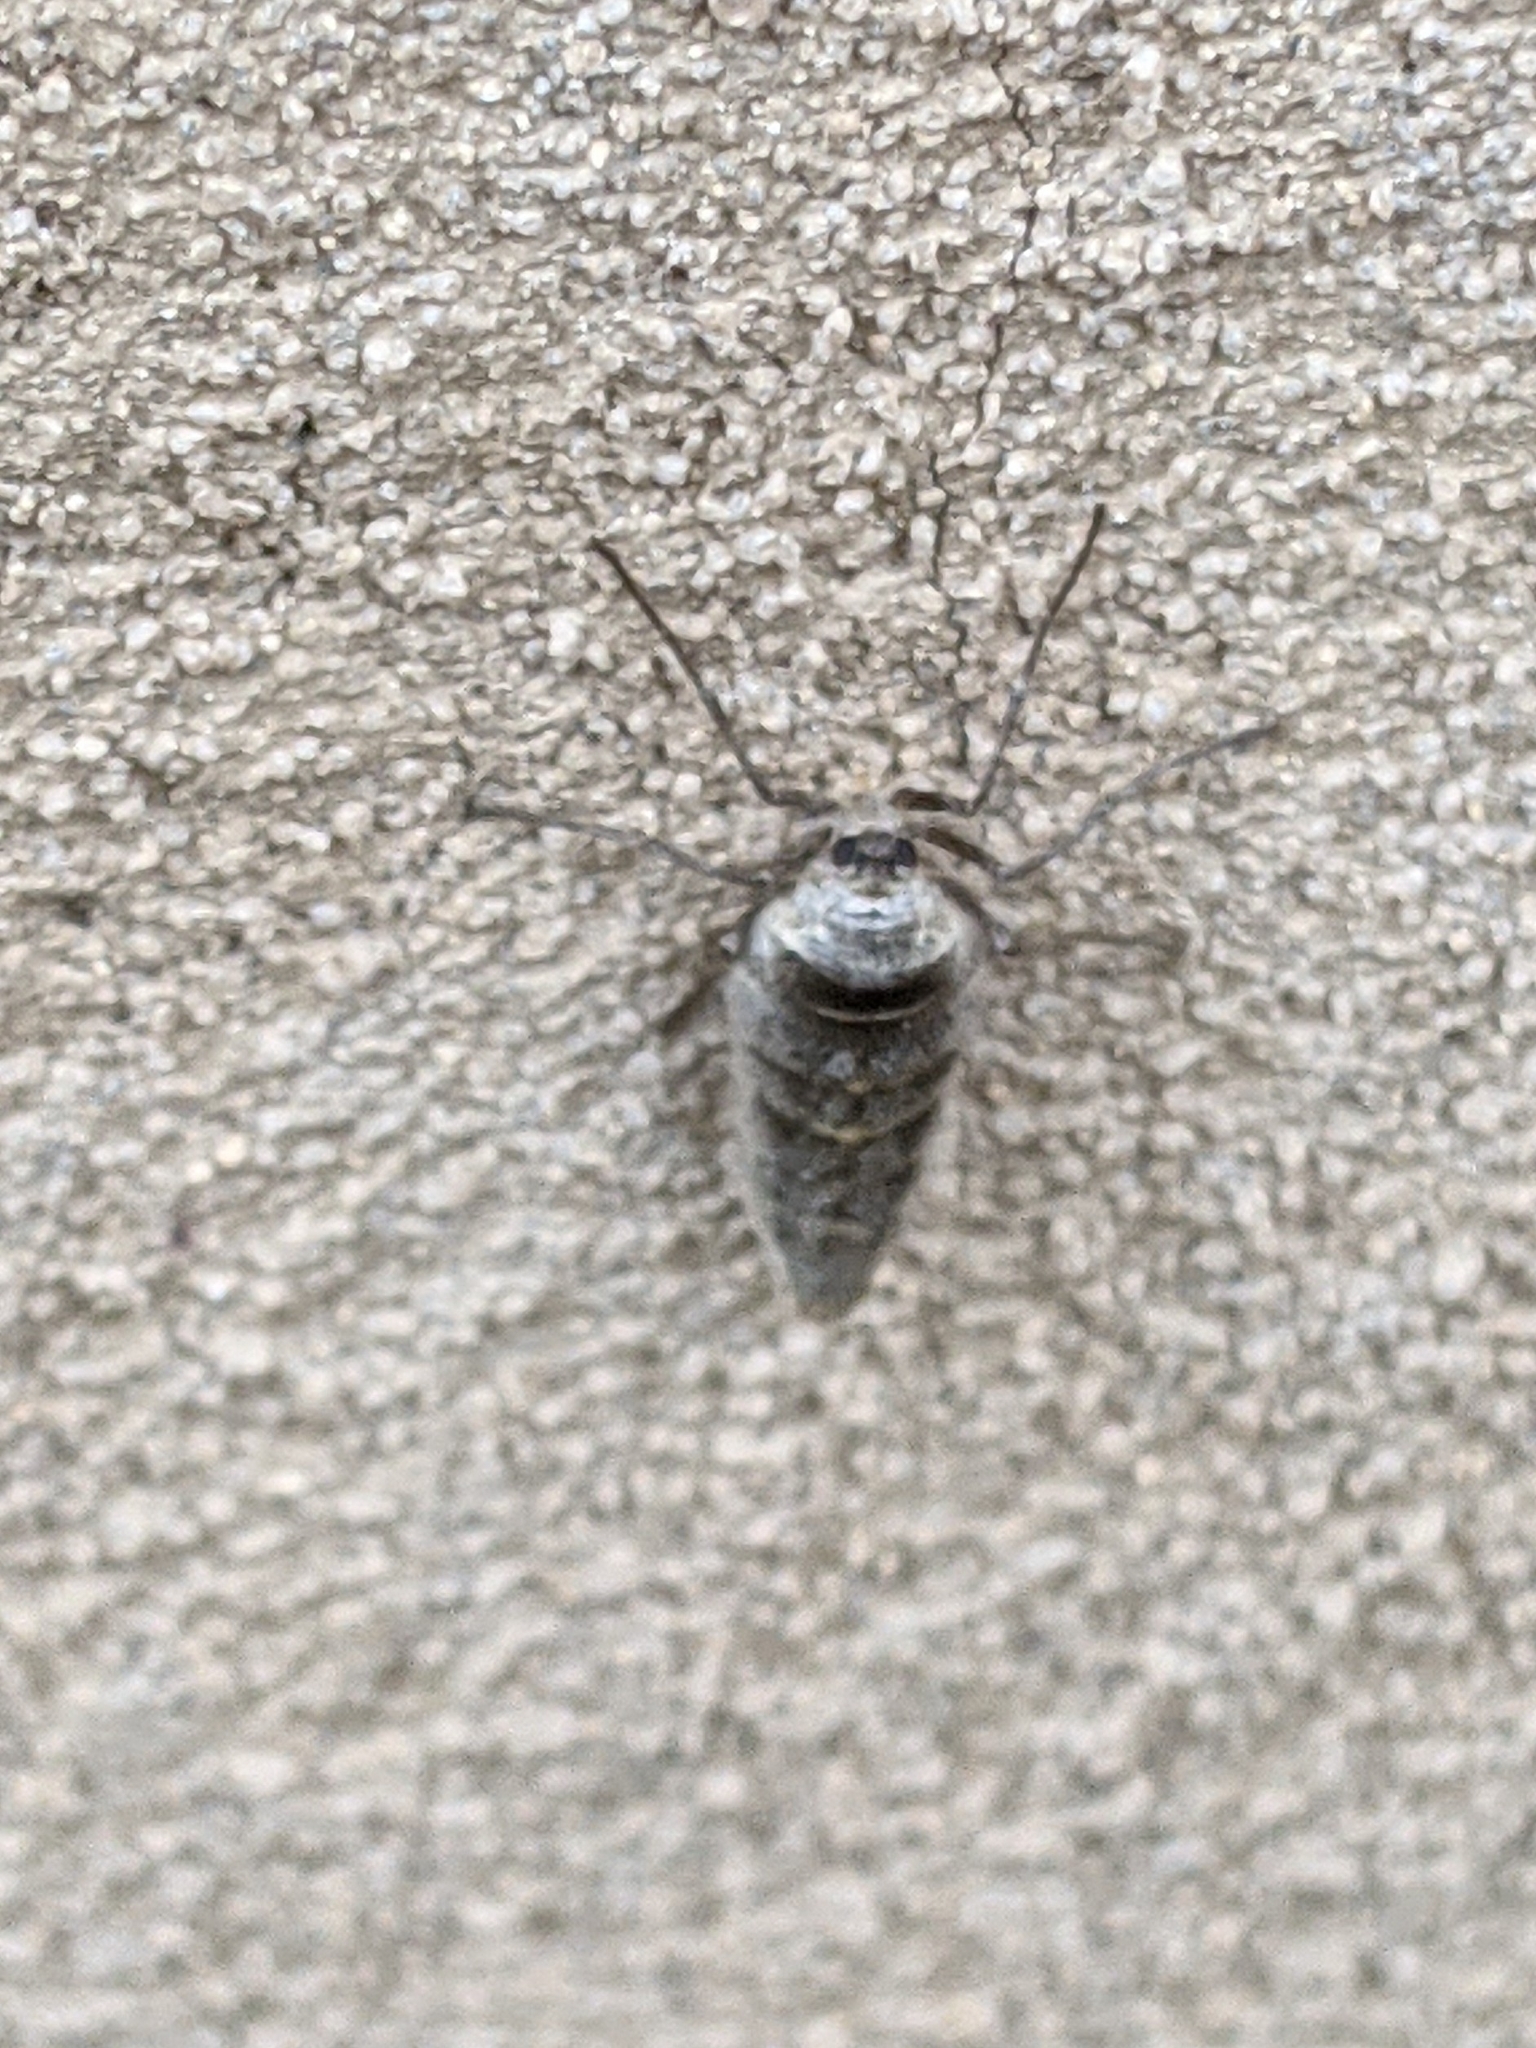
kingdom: Animalia
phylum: Arthropoda
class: Insecta
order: Lepidoptera
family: Geometridae
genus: Alsophila
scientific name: Alsophila pometaria
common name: Fall cankerworm
